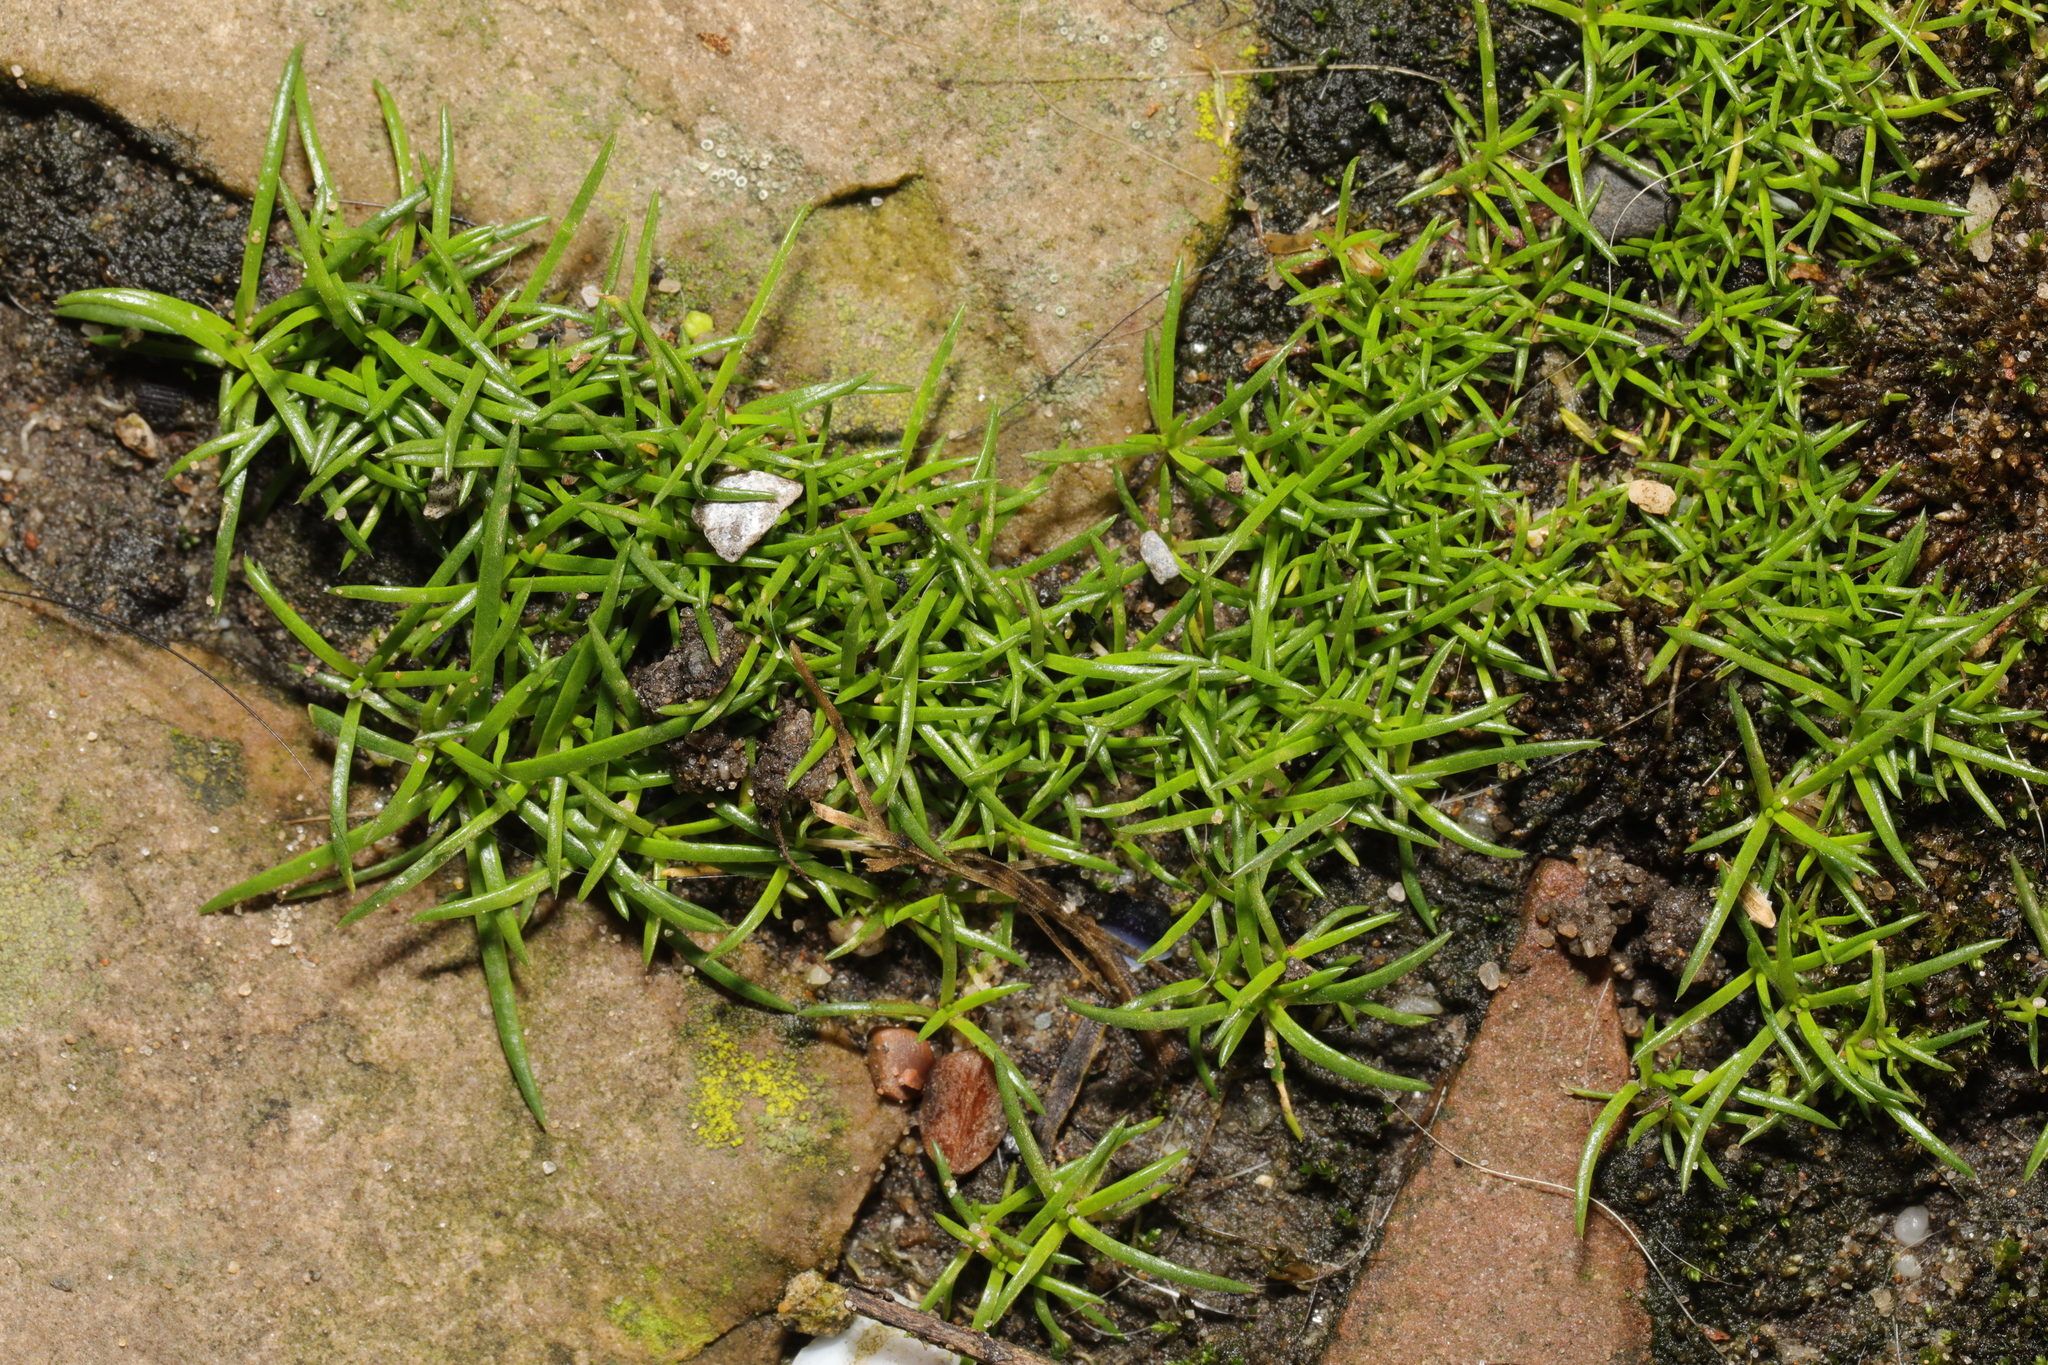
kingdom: Plantae
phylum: Tracheophyta
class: Magnoliopsida
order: Caryophyllales
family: Caryophyllaceae
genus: Sagina
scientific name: Sagina procumbens
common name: Procumbent pearlwort
